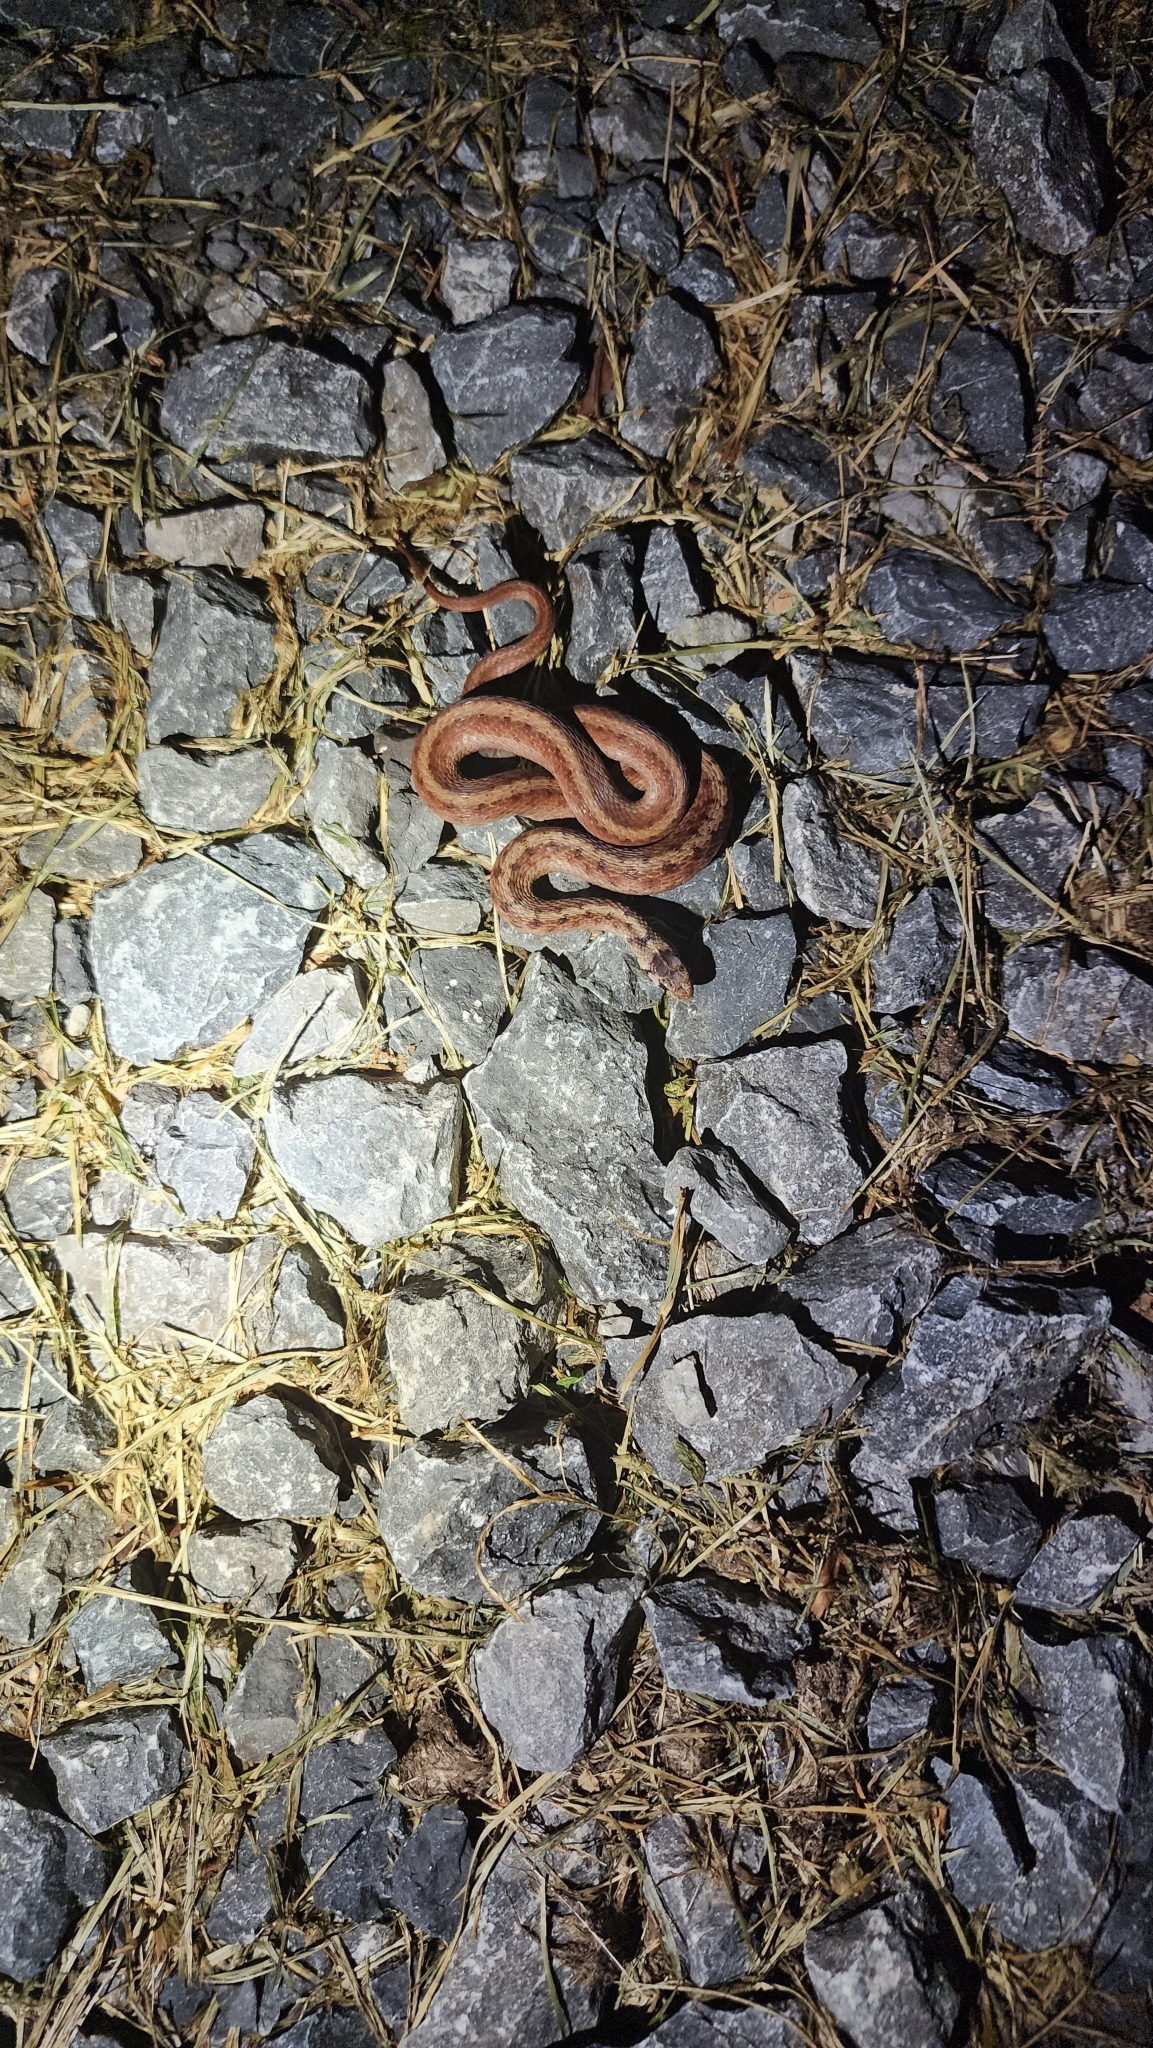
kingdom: Animalia
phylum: Chordata
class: Squamata
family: Colubridae
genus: Storeria
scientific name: Storeria dekayi
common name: (dekay’s) brown snake
